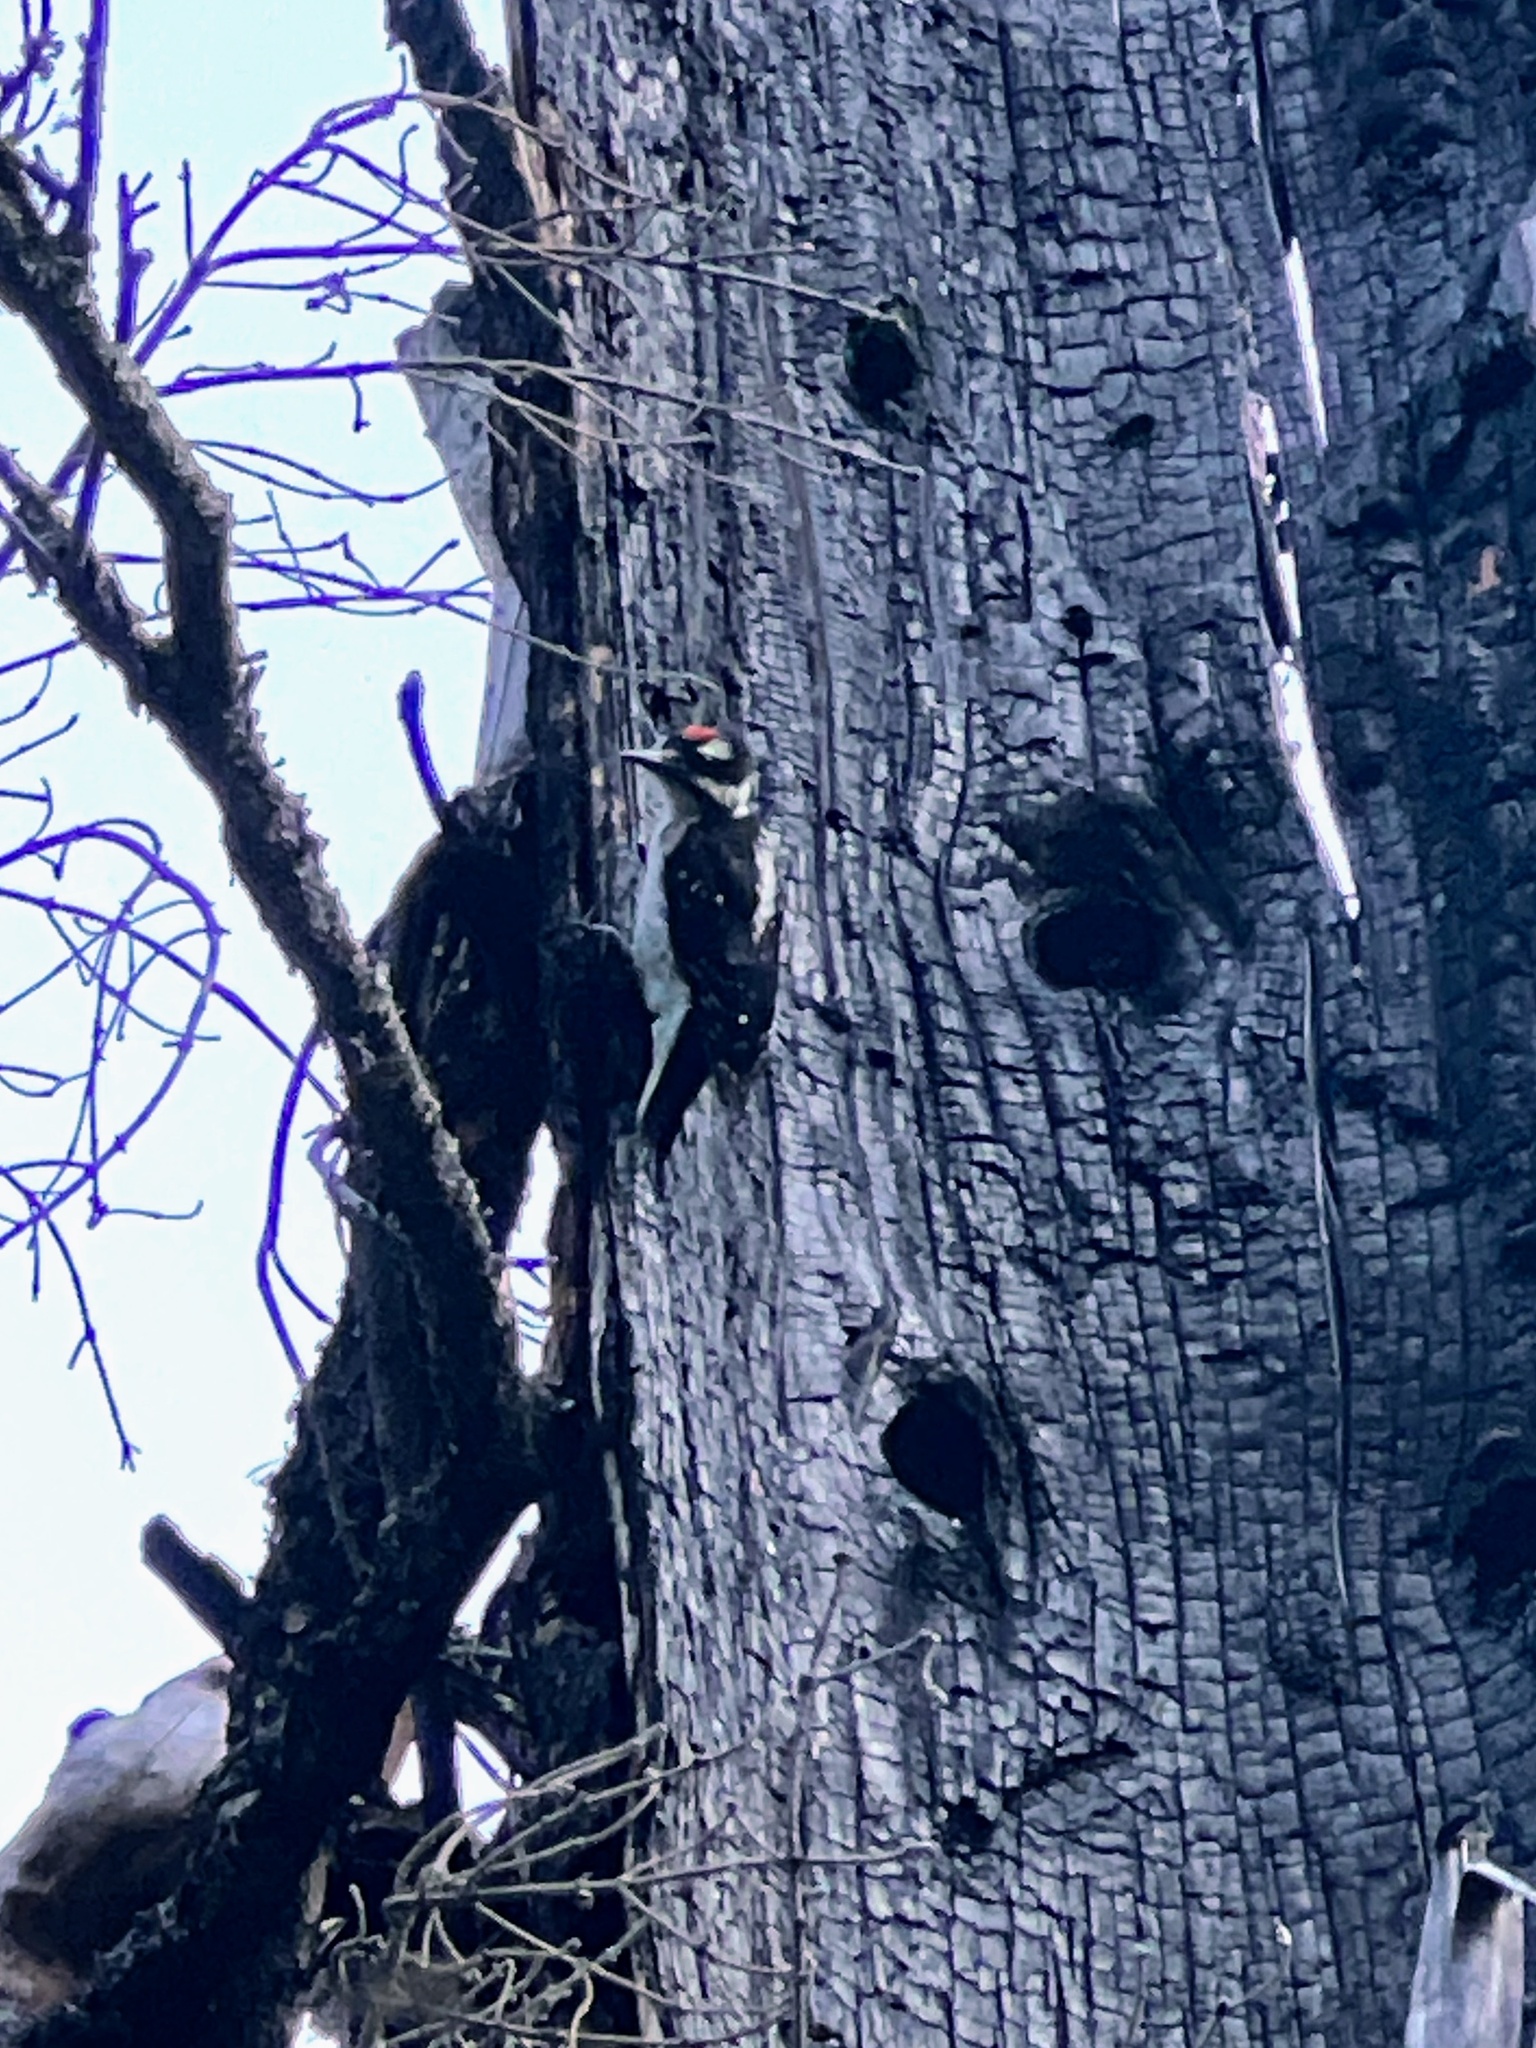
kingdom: Animalia
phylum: Chordata
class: Aves
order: Piciformes
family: Picidae
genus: Leuconotopicus
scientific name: Leuconotopicus villosus
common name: Hairy woodpecker
